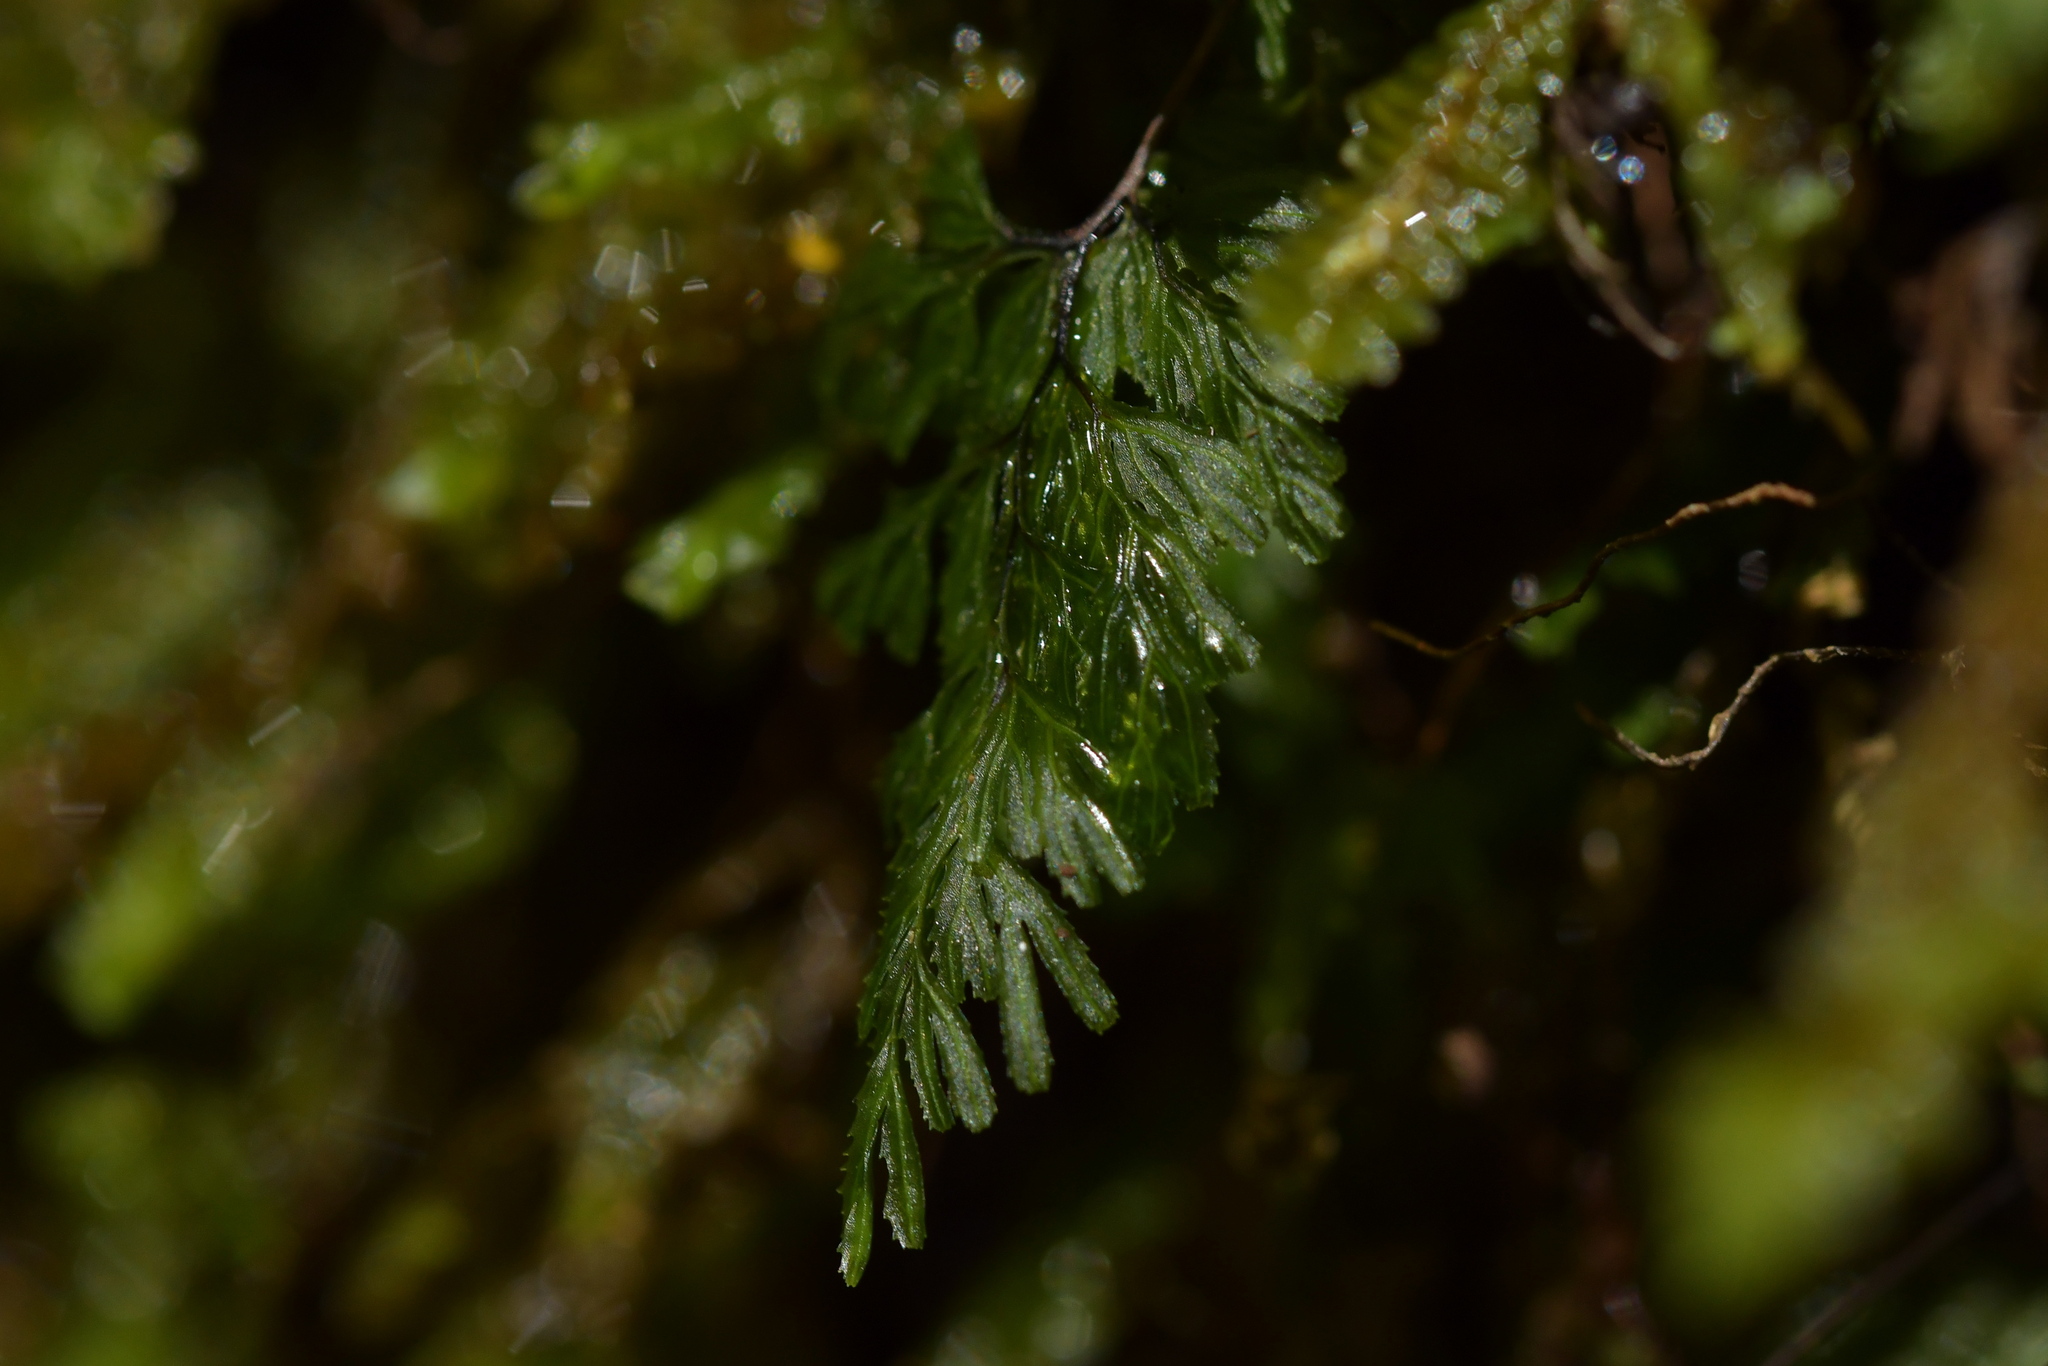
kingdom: Plantae
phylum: Tracheophyta
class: Polypodiopsida
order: Hymenophyllales
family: Hymenophyllaceae
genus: Hymenophyllum
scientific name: Hymenophyllum multifidum
